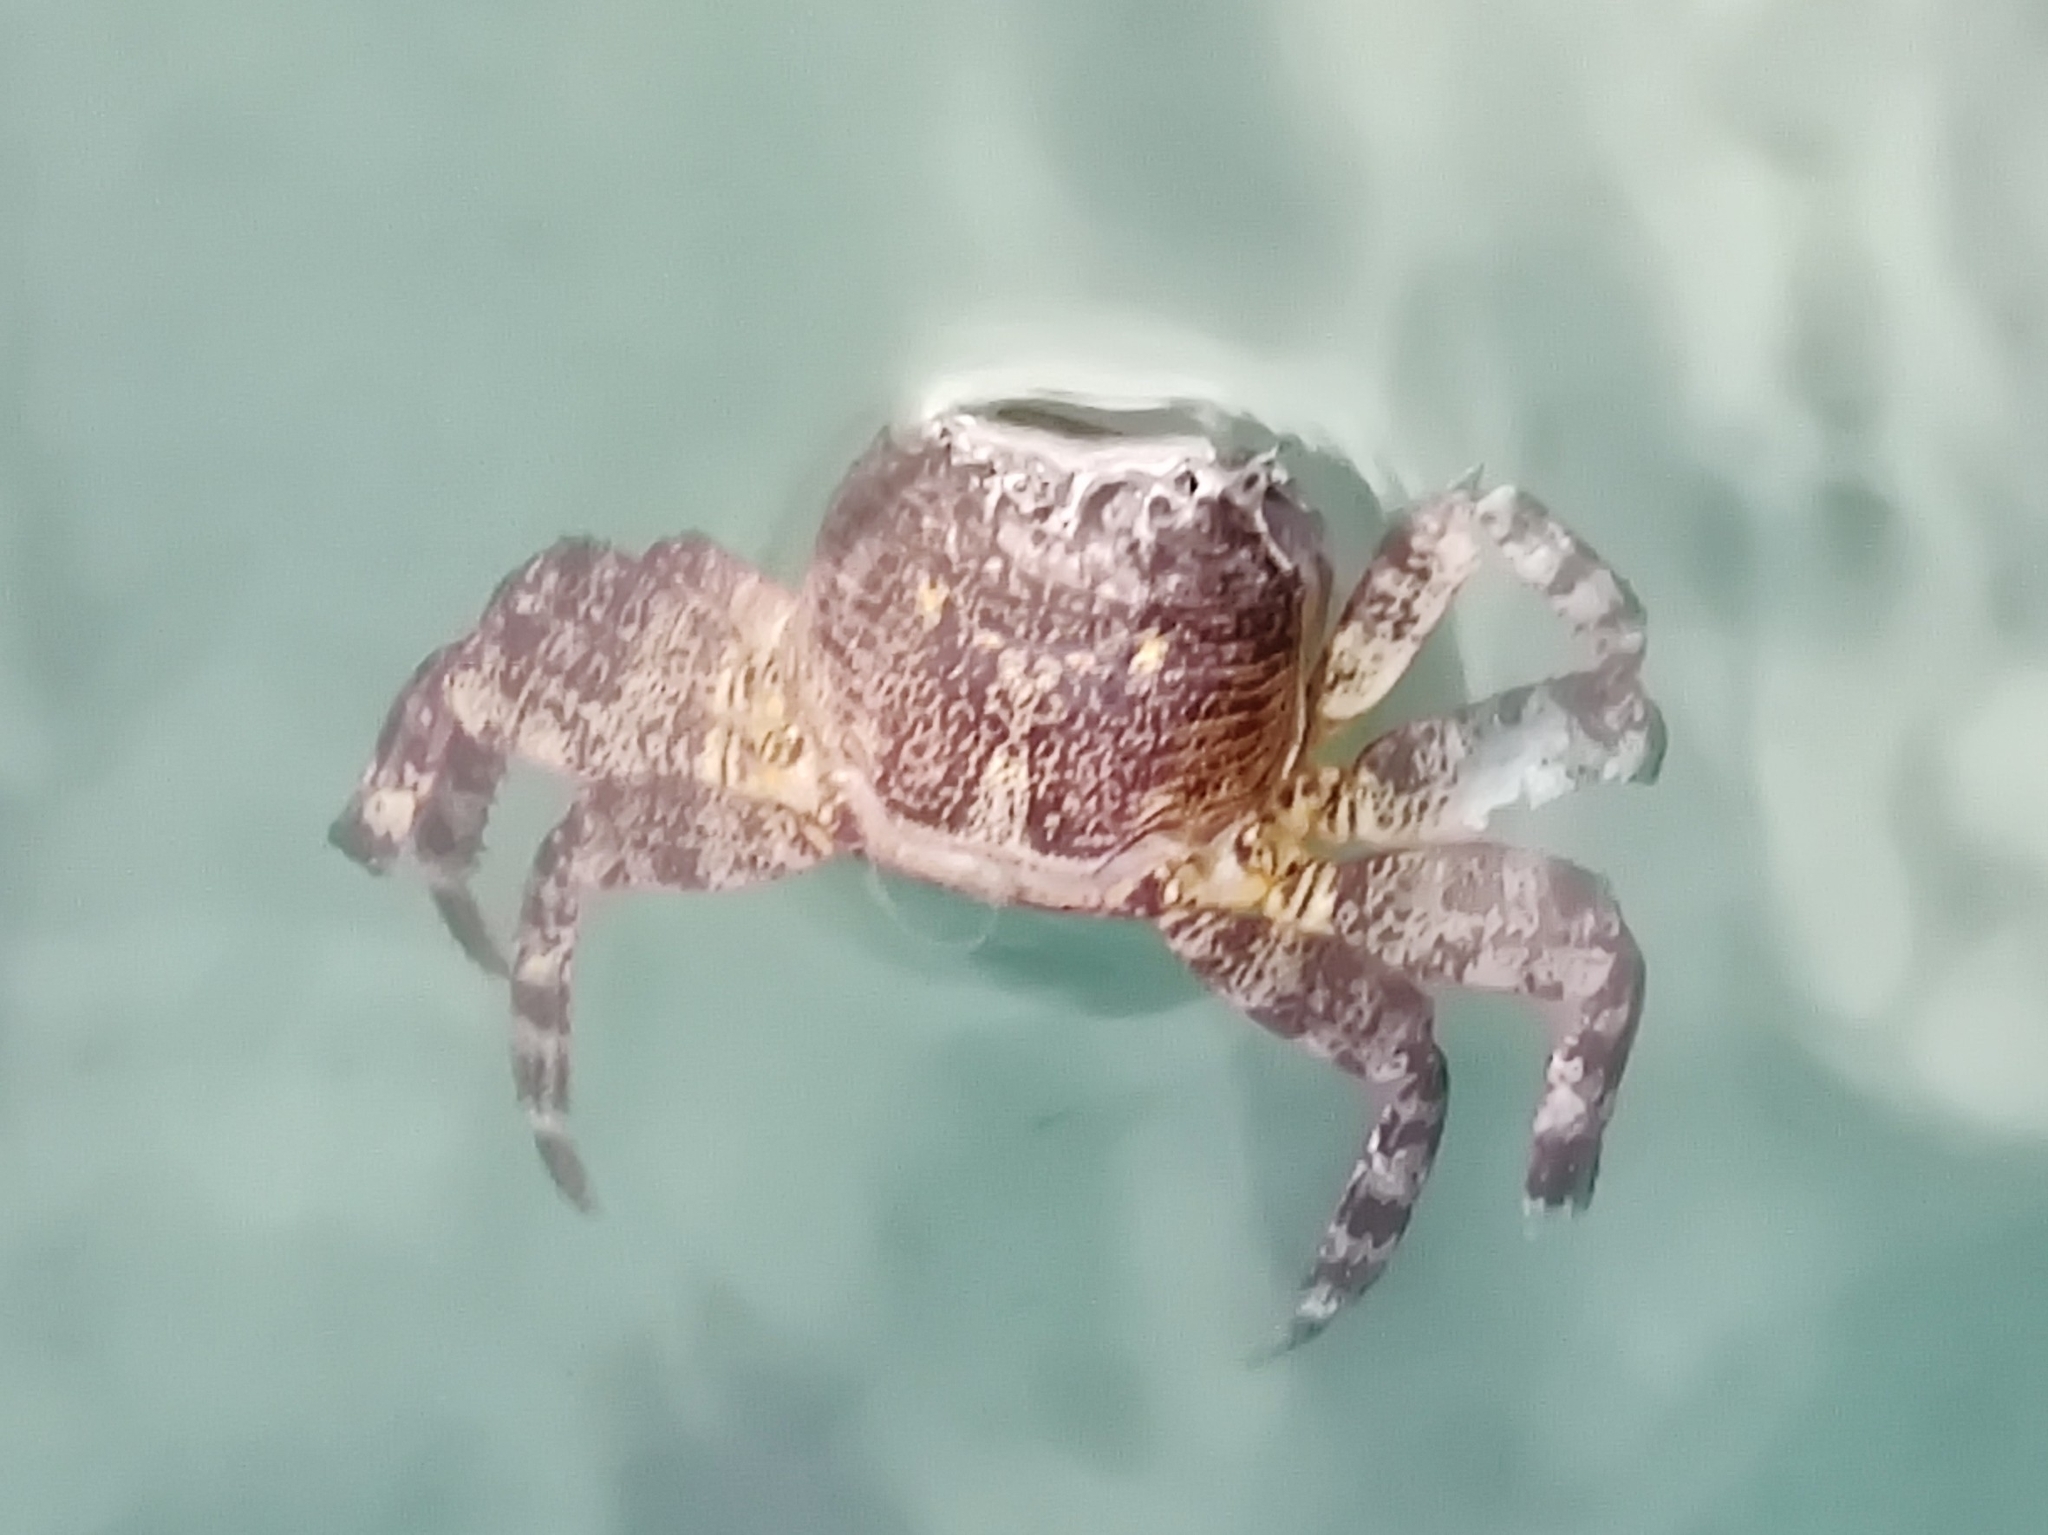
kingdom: Animalia
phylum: Arthropoda
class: Malacostraca
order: Decapoda
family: Grapsidae
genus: Leptograpsus
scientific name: Leptograpsus variegatus
